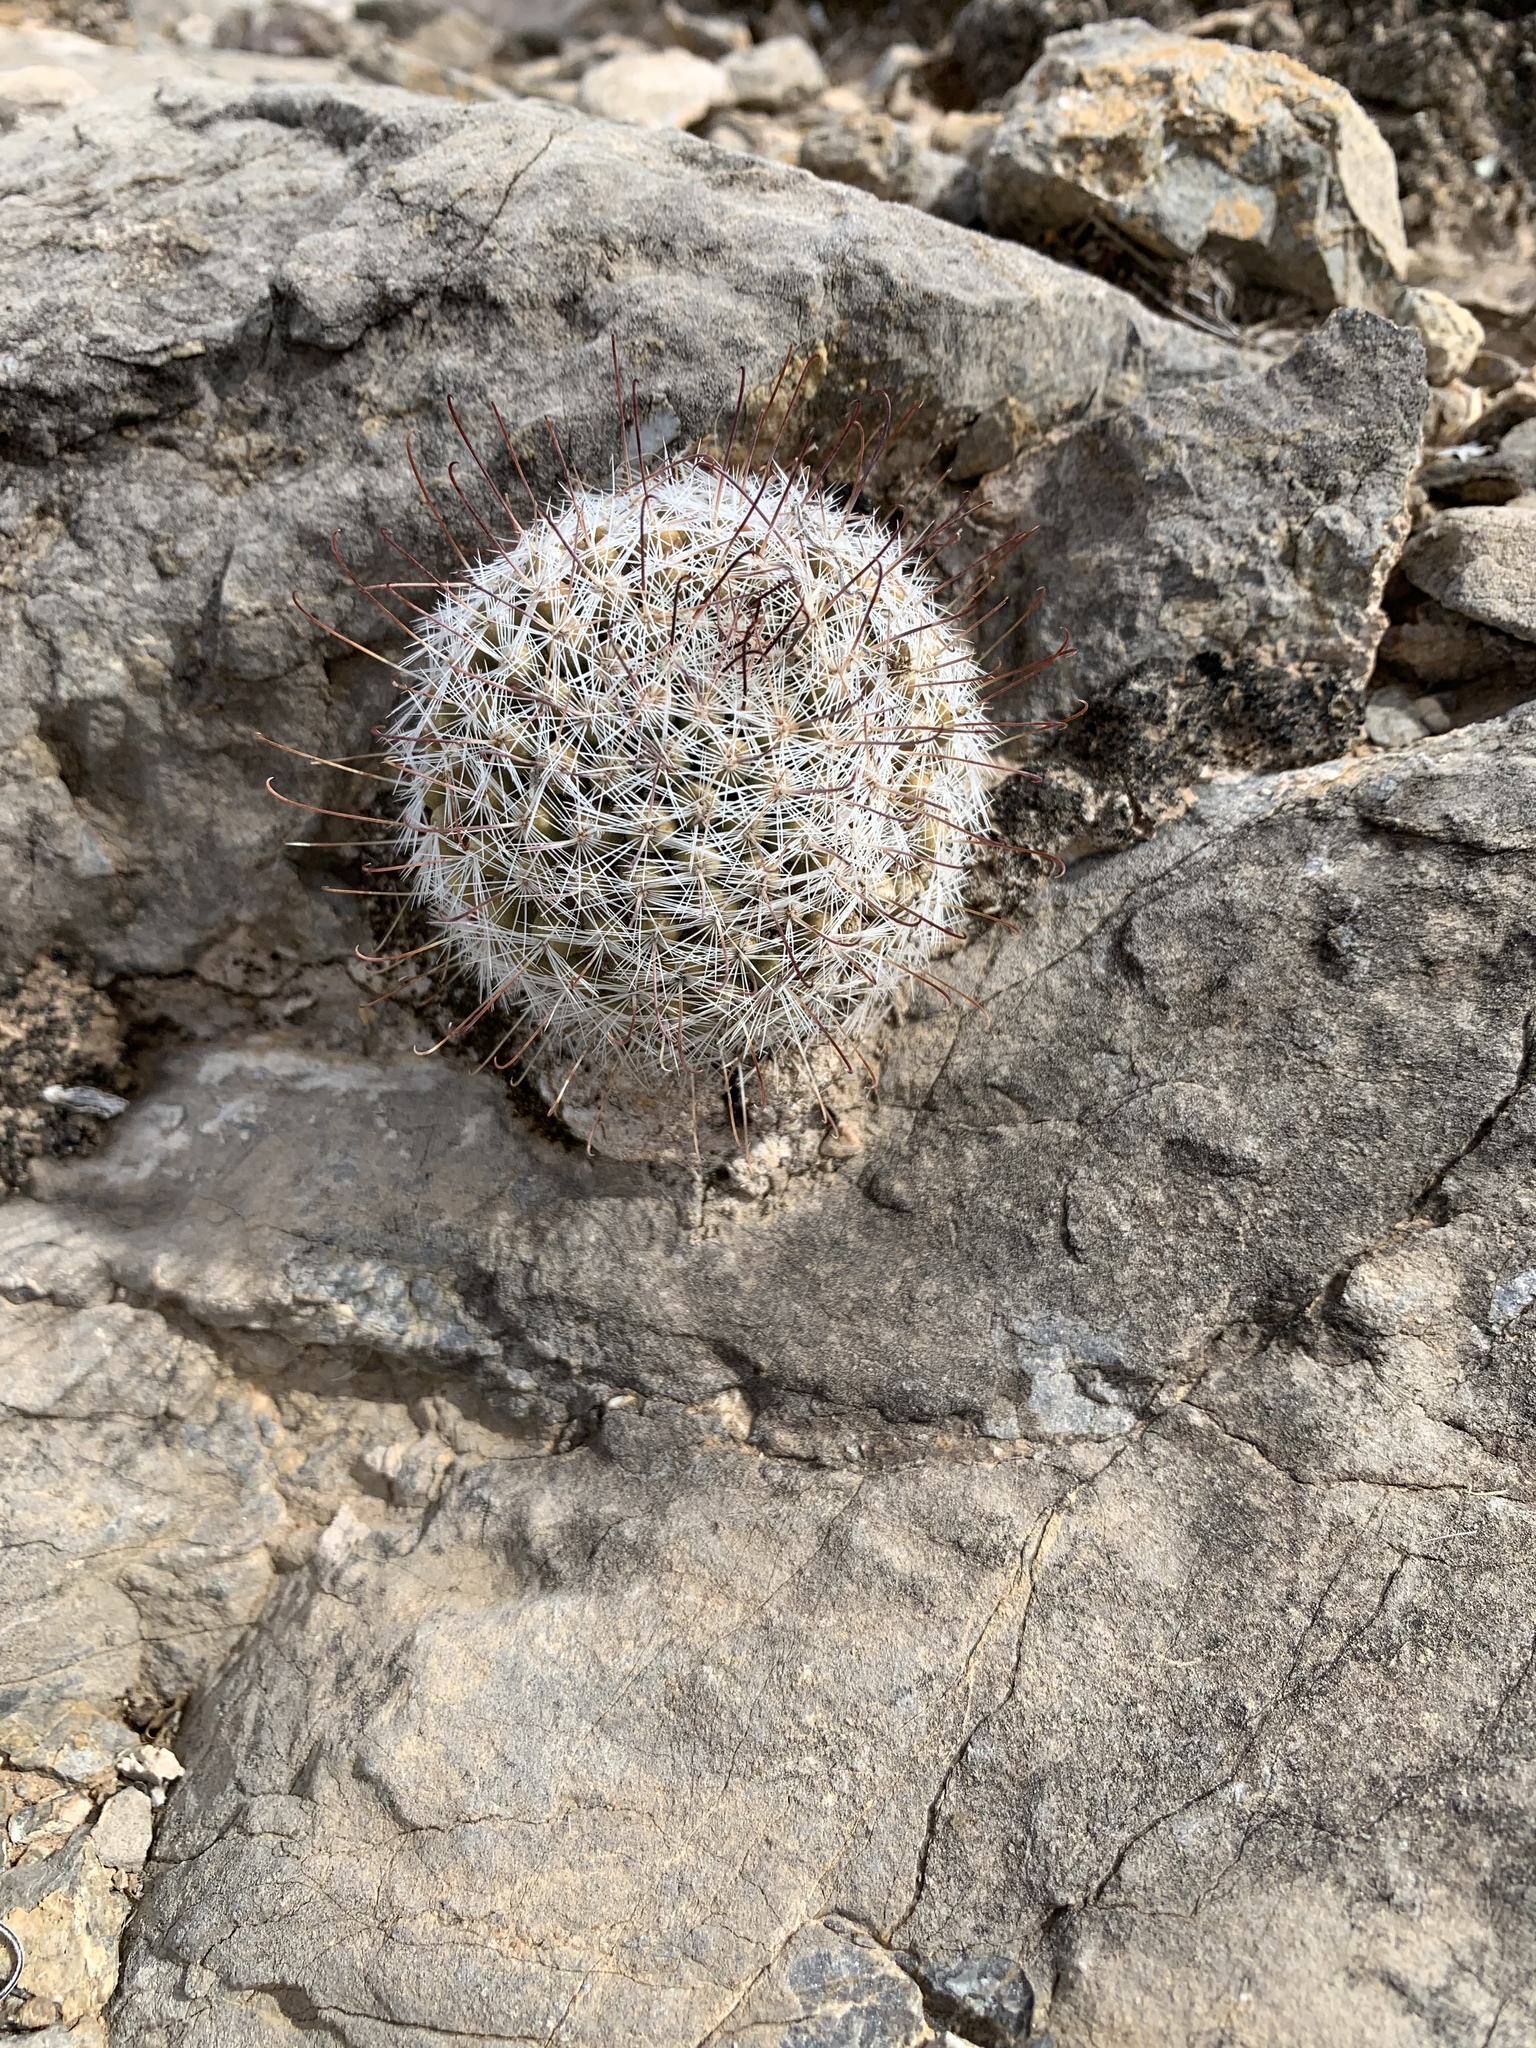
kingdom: Plantae
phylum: Tracheophyta
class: Magnoliopsida
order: Caryophyllales
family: Cactaceae
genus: Cochemiea
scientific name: Cochemiea grahamii
